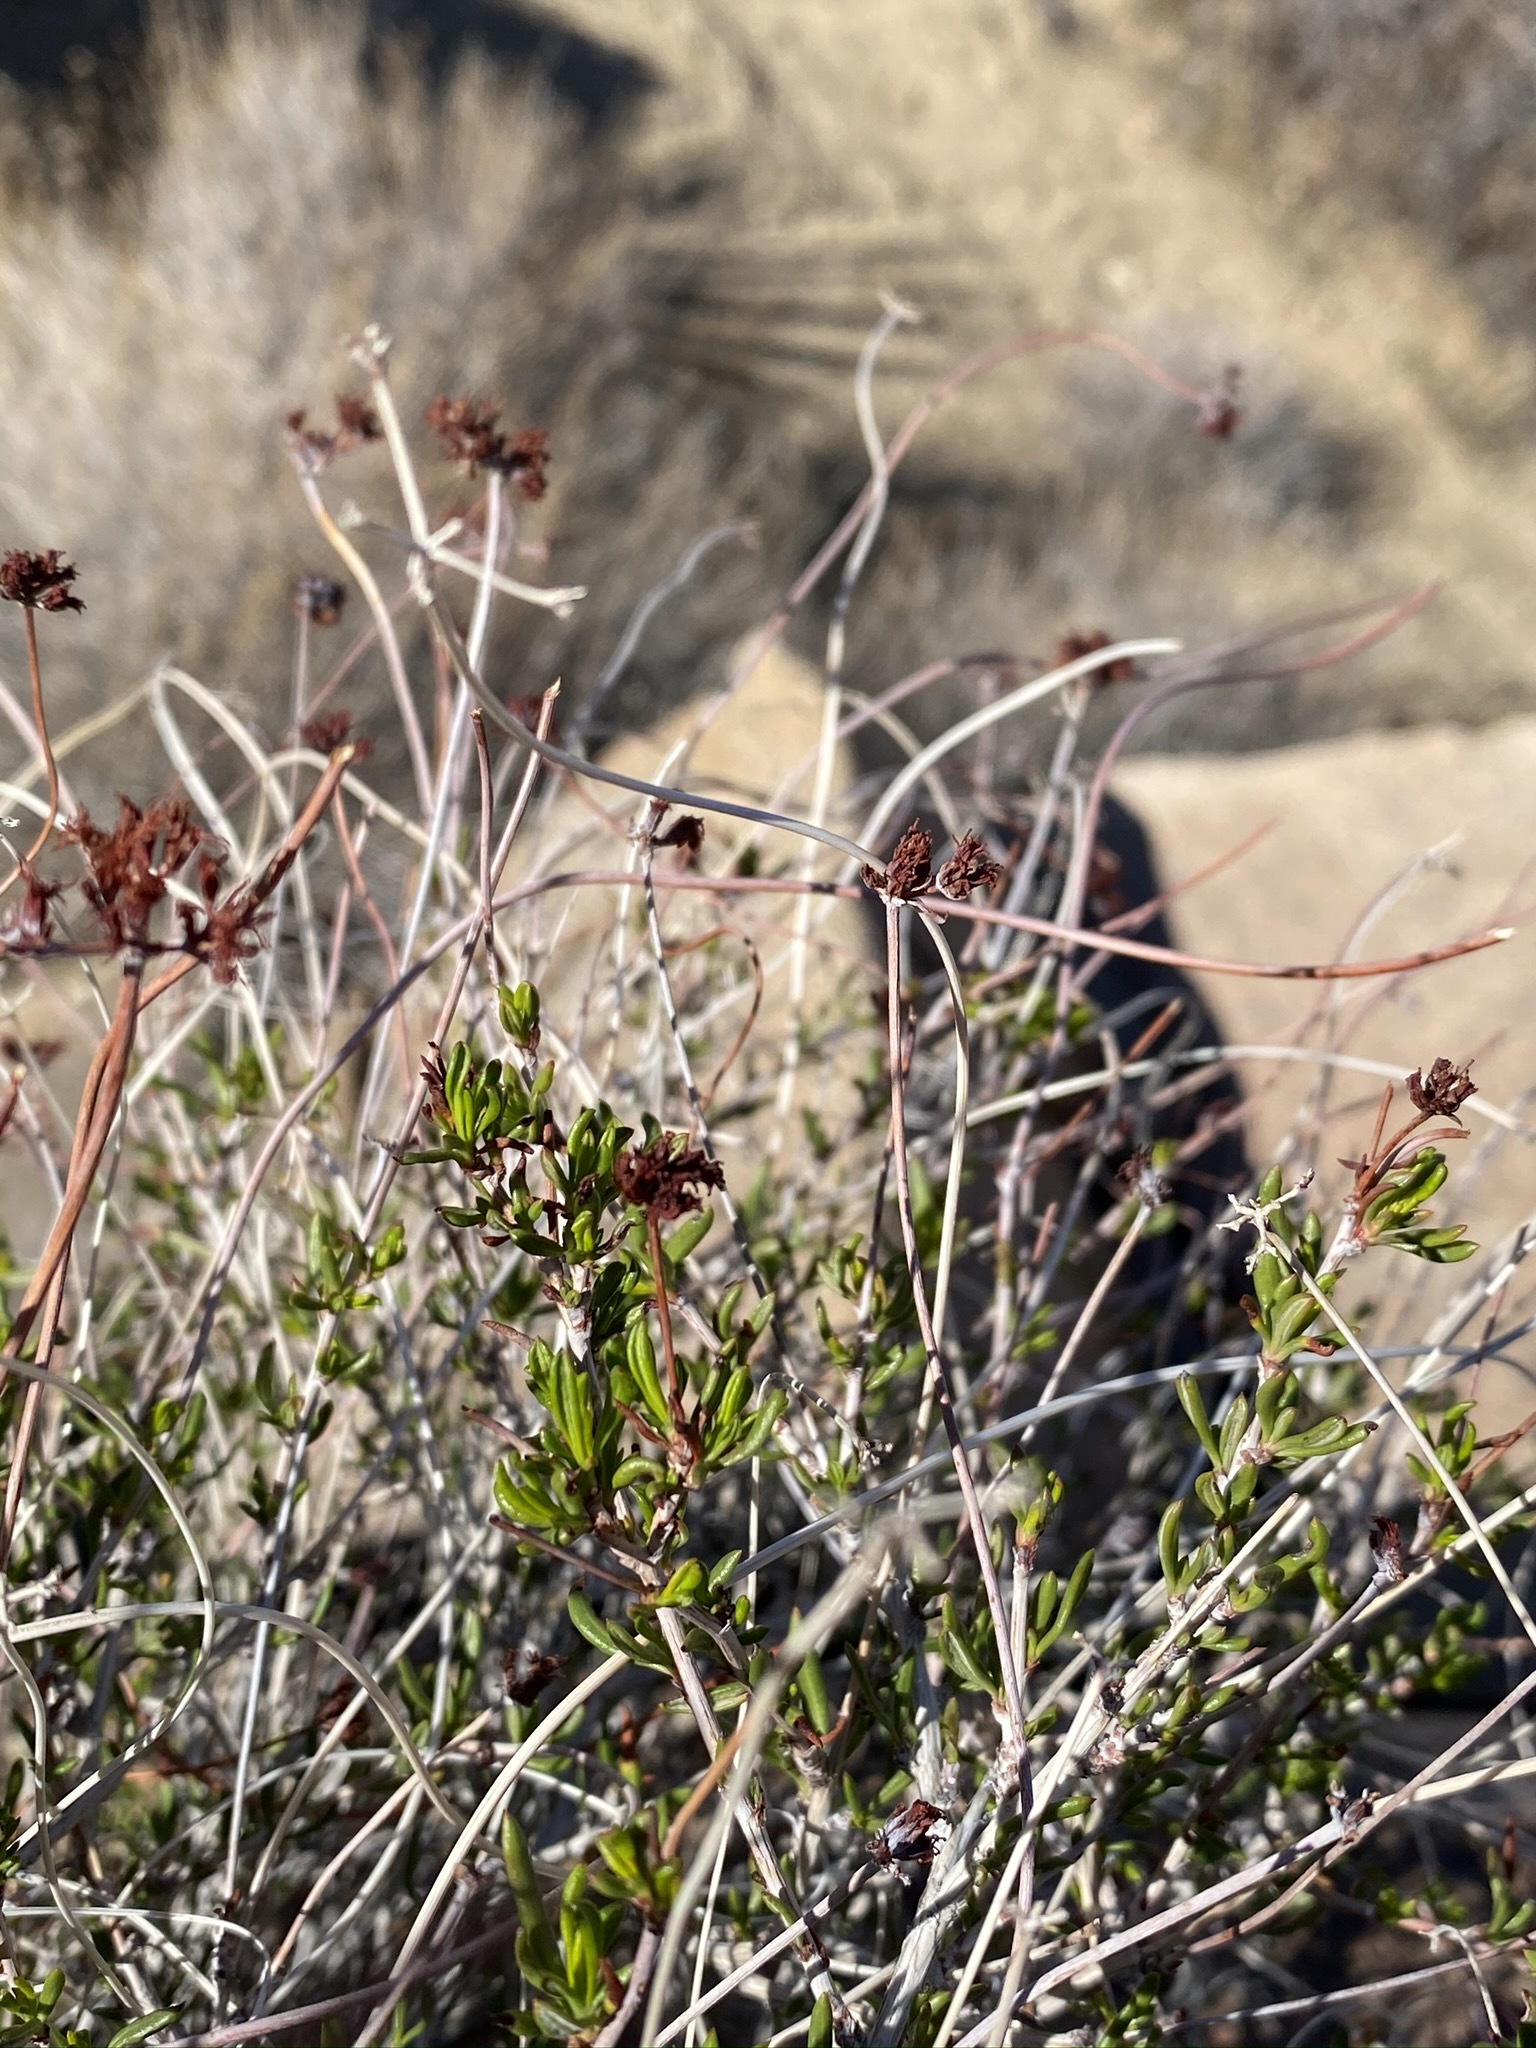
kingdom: Plantae
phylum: Tracheophyta
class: Magnoliopsida
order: Caryophyllales
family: Polygonaceae
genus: Eriogonum
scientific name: Eriogonum fasciculatum
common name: California wild buckwheat
